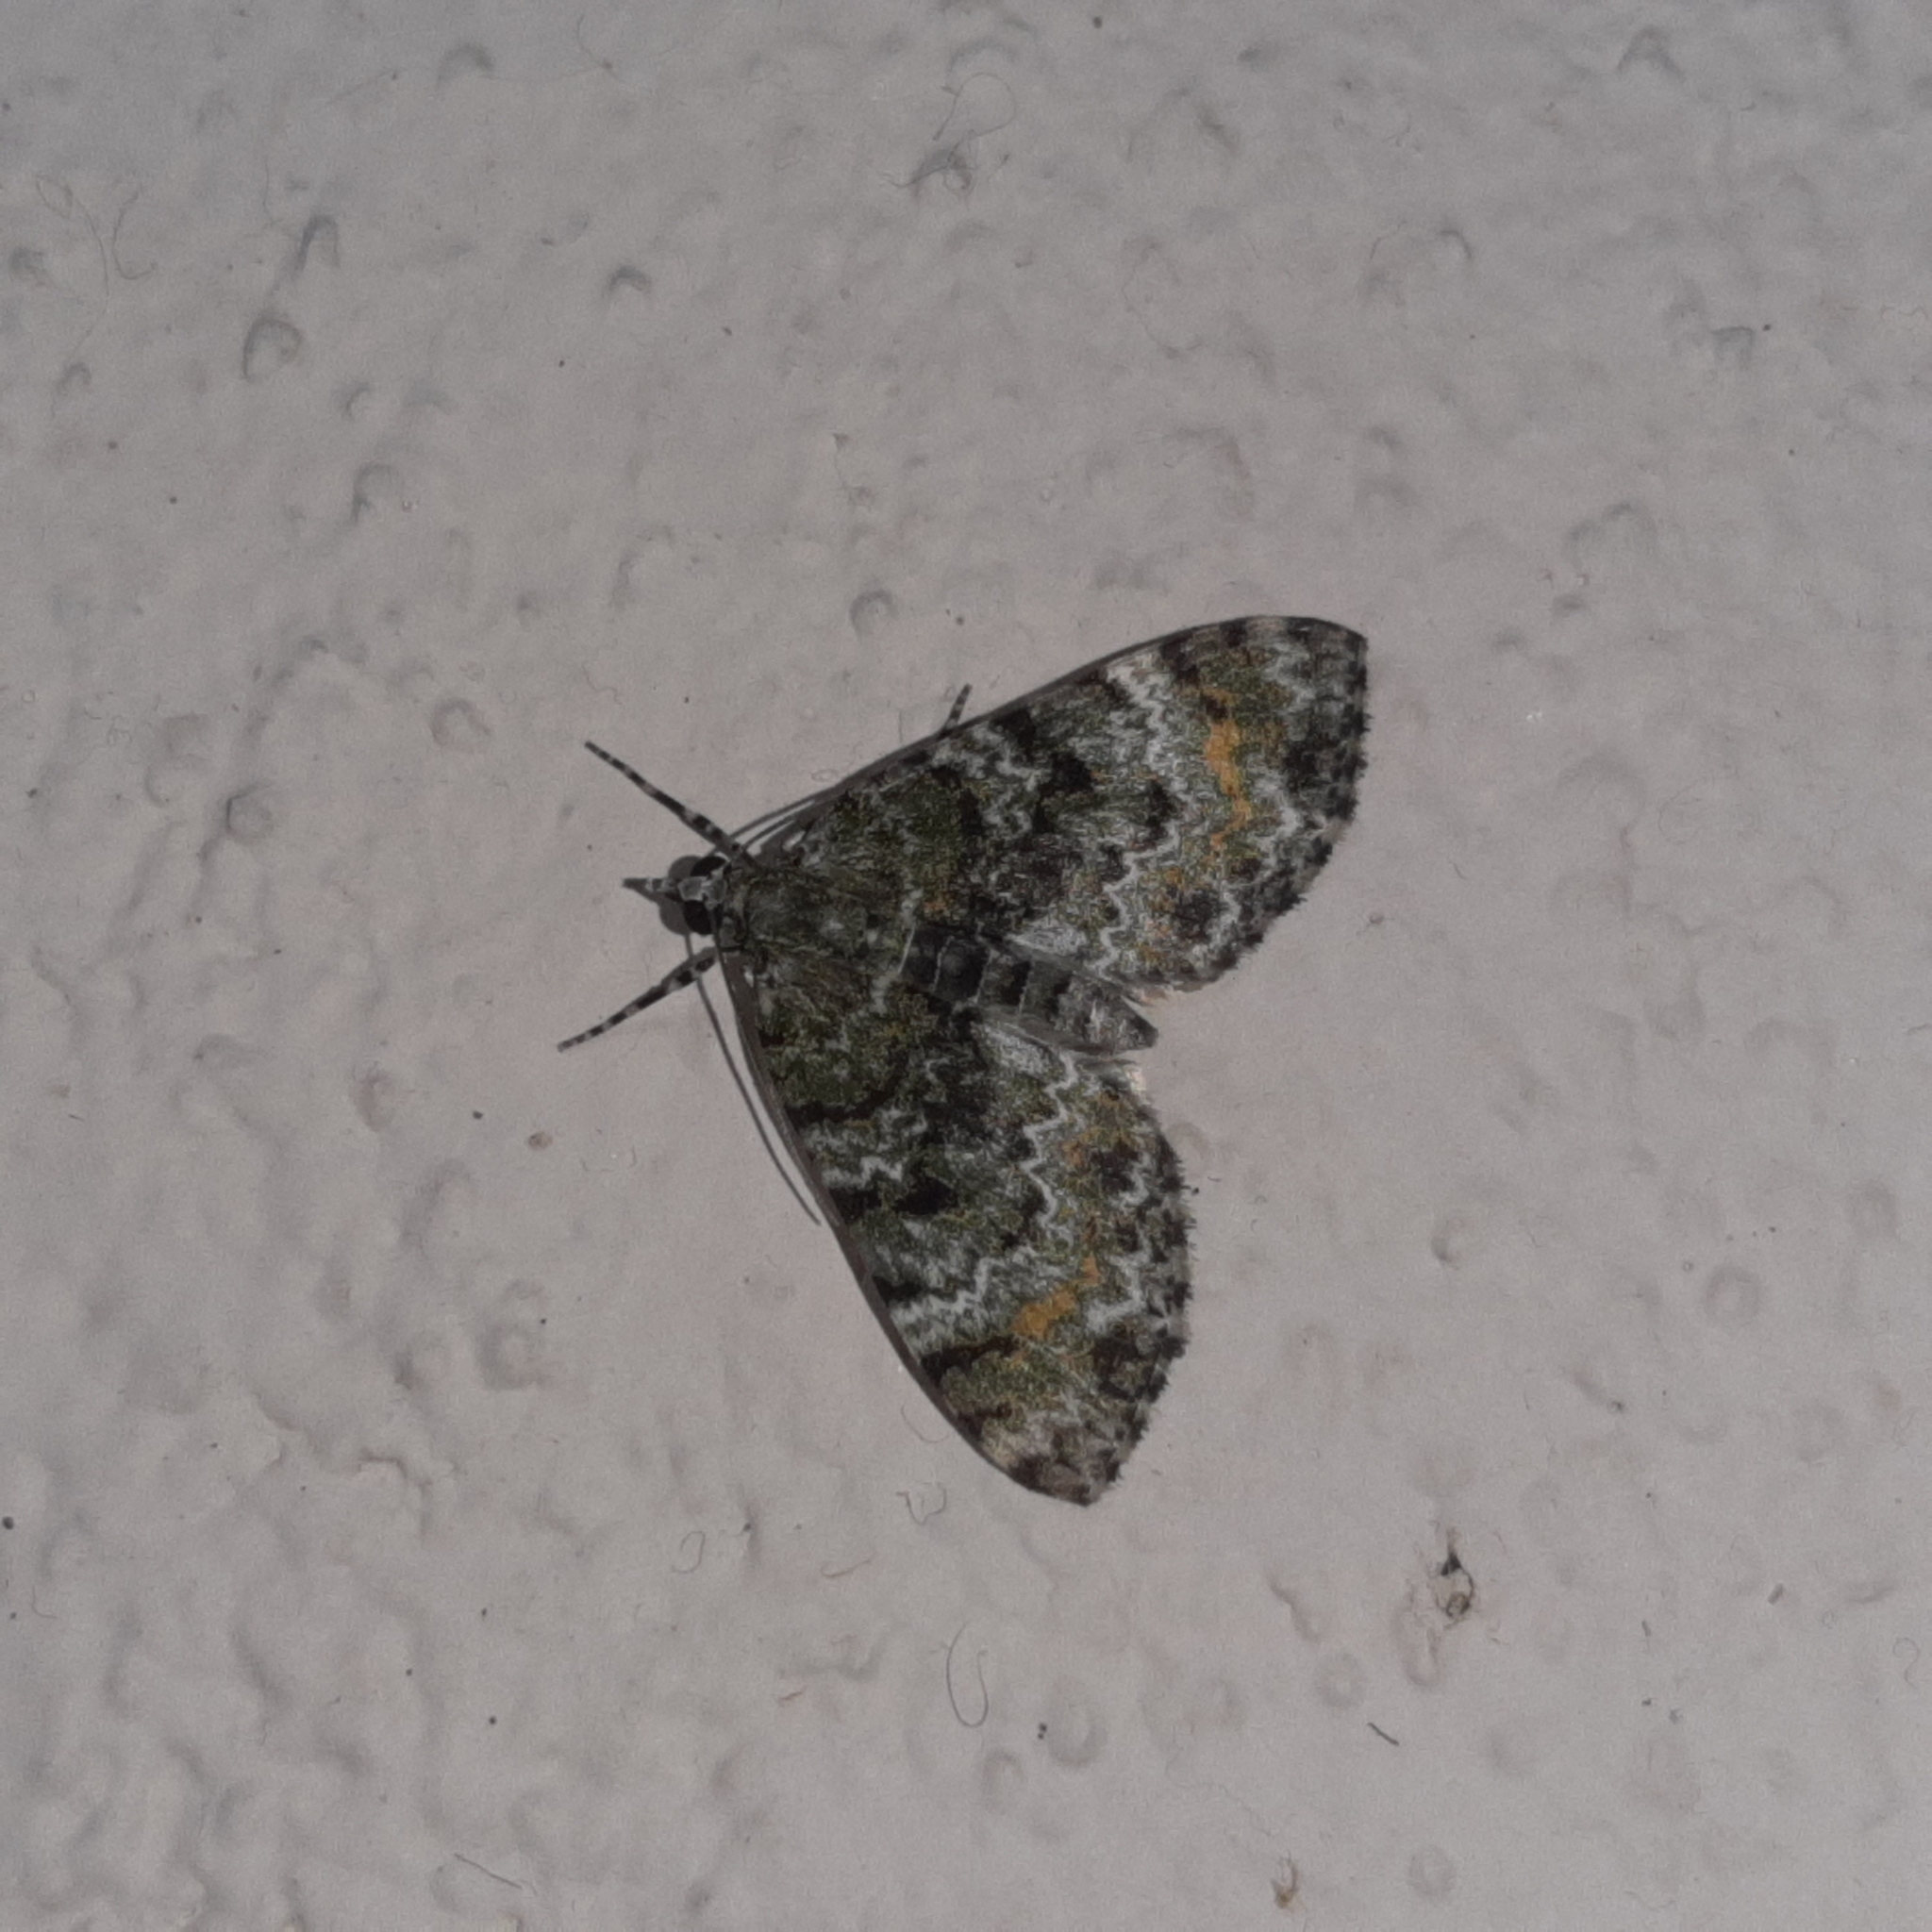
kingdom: Animalia
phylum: Arthropoda
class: Insecta
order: Lepidoptera
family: Geometridae
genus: Spargania
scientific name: Spargania cultata
